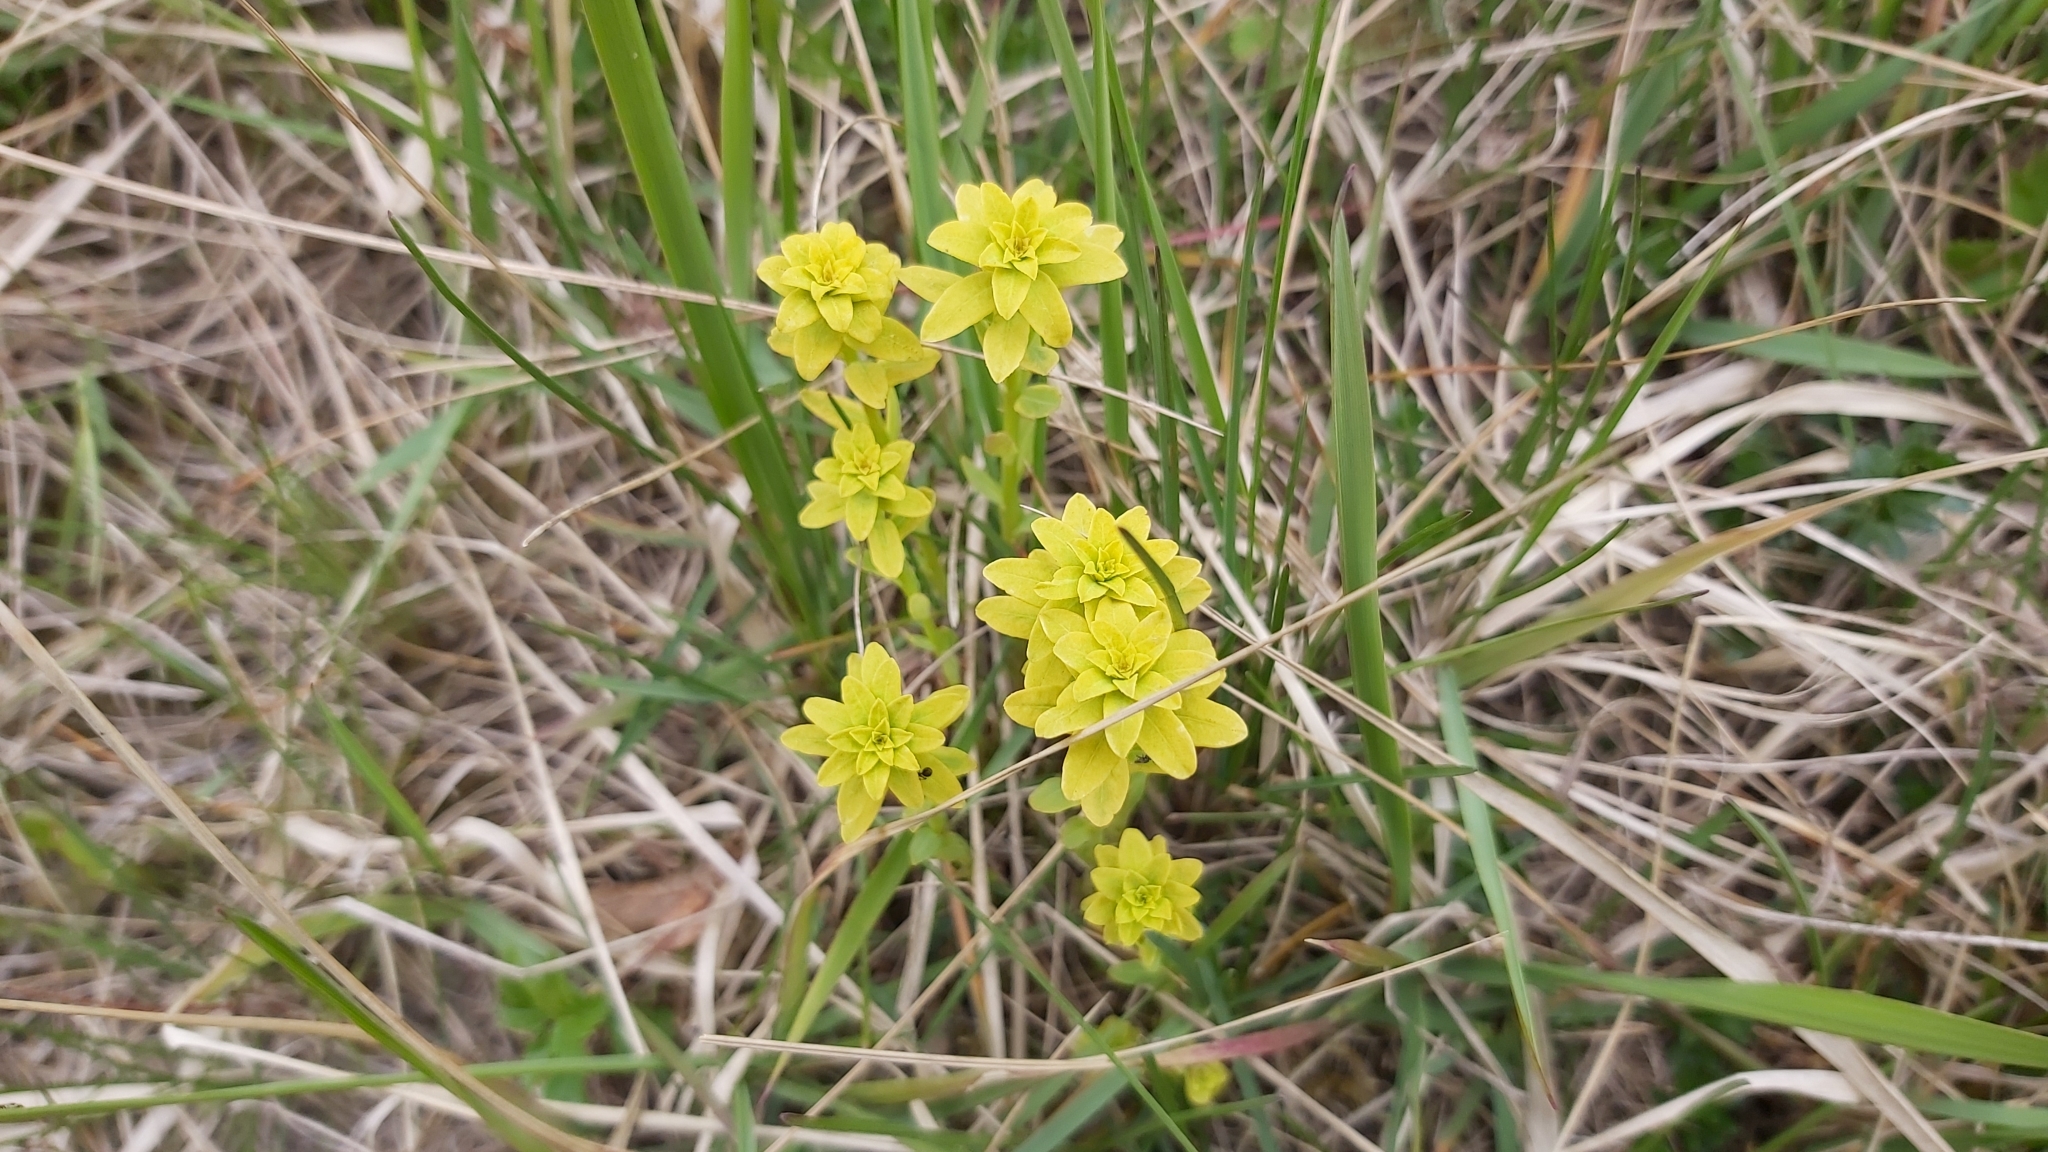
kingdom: Plantae
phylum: Tracheophyta
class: Magnoliopsida
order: Malpighiales
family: Euphorbiaceae
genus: Euphorbia
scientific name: Euphorbia esula
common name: Leafy spurge
